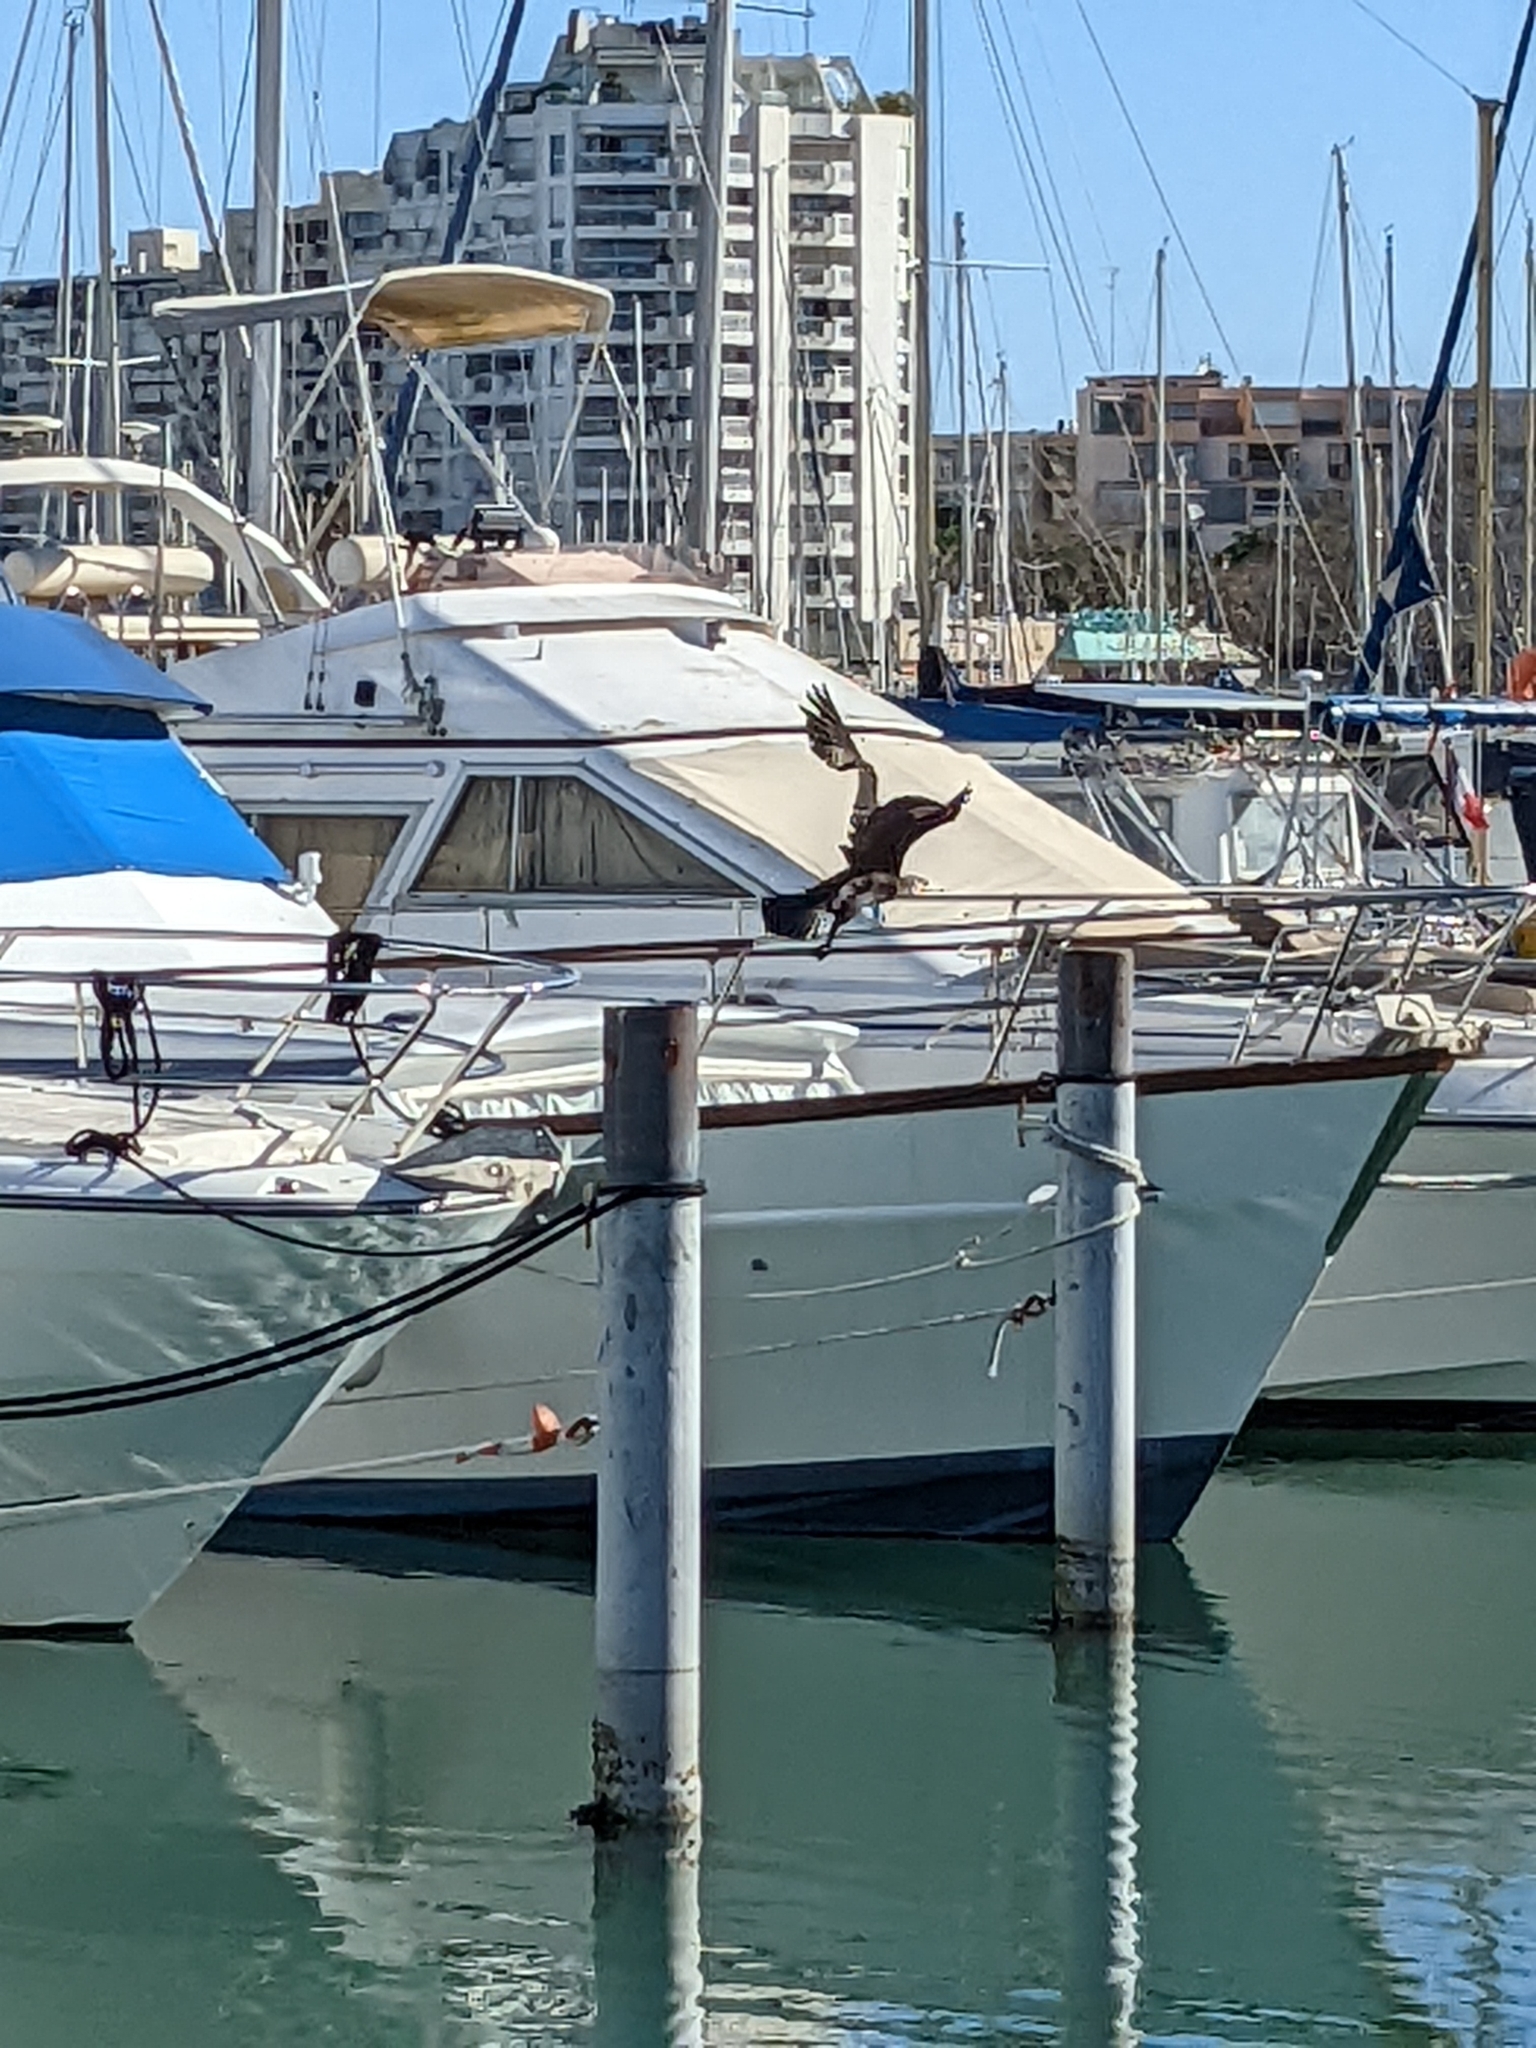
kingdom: Animalia
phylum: Chordata
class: Aves
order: Suliformes
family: Phalacrocoracidae
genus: Phalacrocorax
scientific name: Phalacrocorax carbo
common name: Great cormorant
